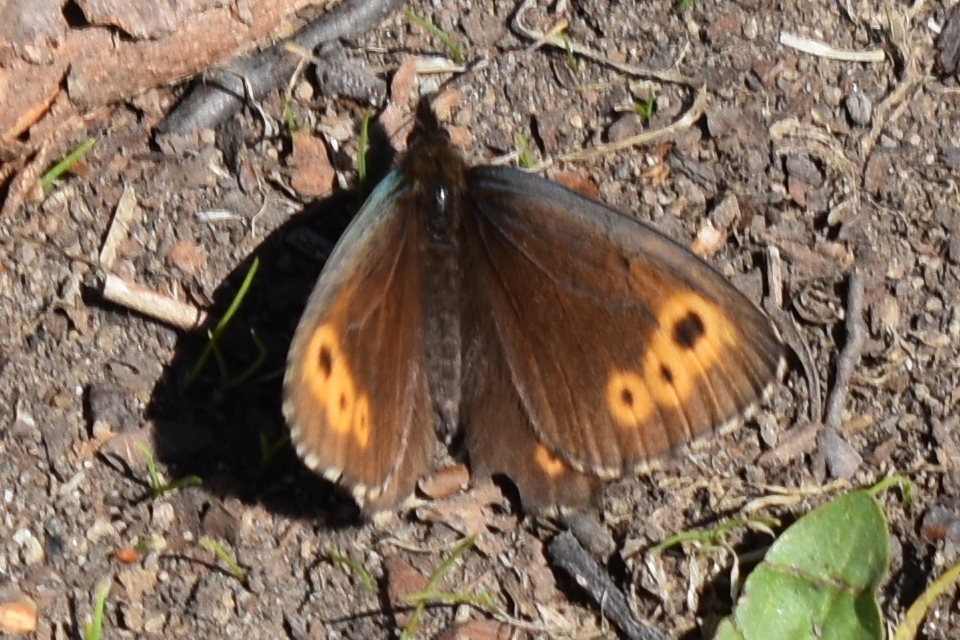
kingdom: Animalia
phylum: Arthropoda
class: Insecta
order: Lepidoptera
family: Nymphalidae
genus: Erebia
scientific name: Erebia embla
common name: Lapland ringlet
